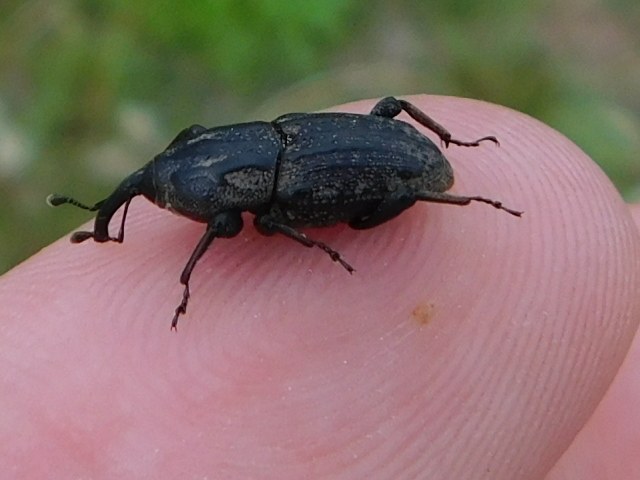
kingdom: Animalia
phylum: Arthropoda
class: Insecta
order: Coleoptera
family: Dryophthoridae
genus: Sphenophorus
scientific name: Sphenophorus cariosus
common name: Weevil
